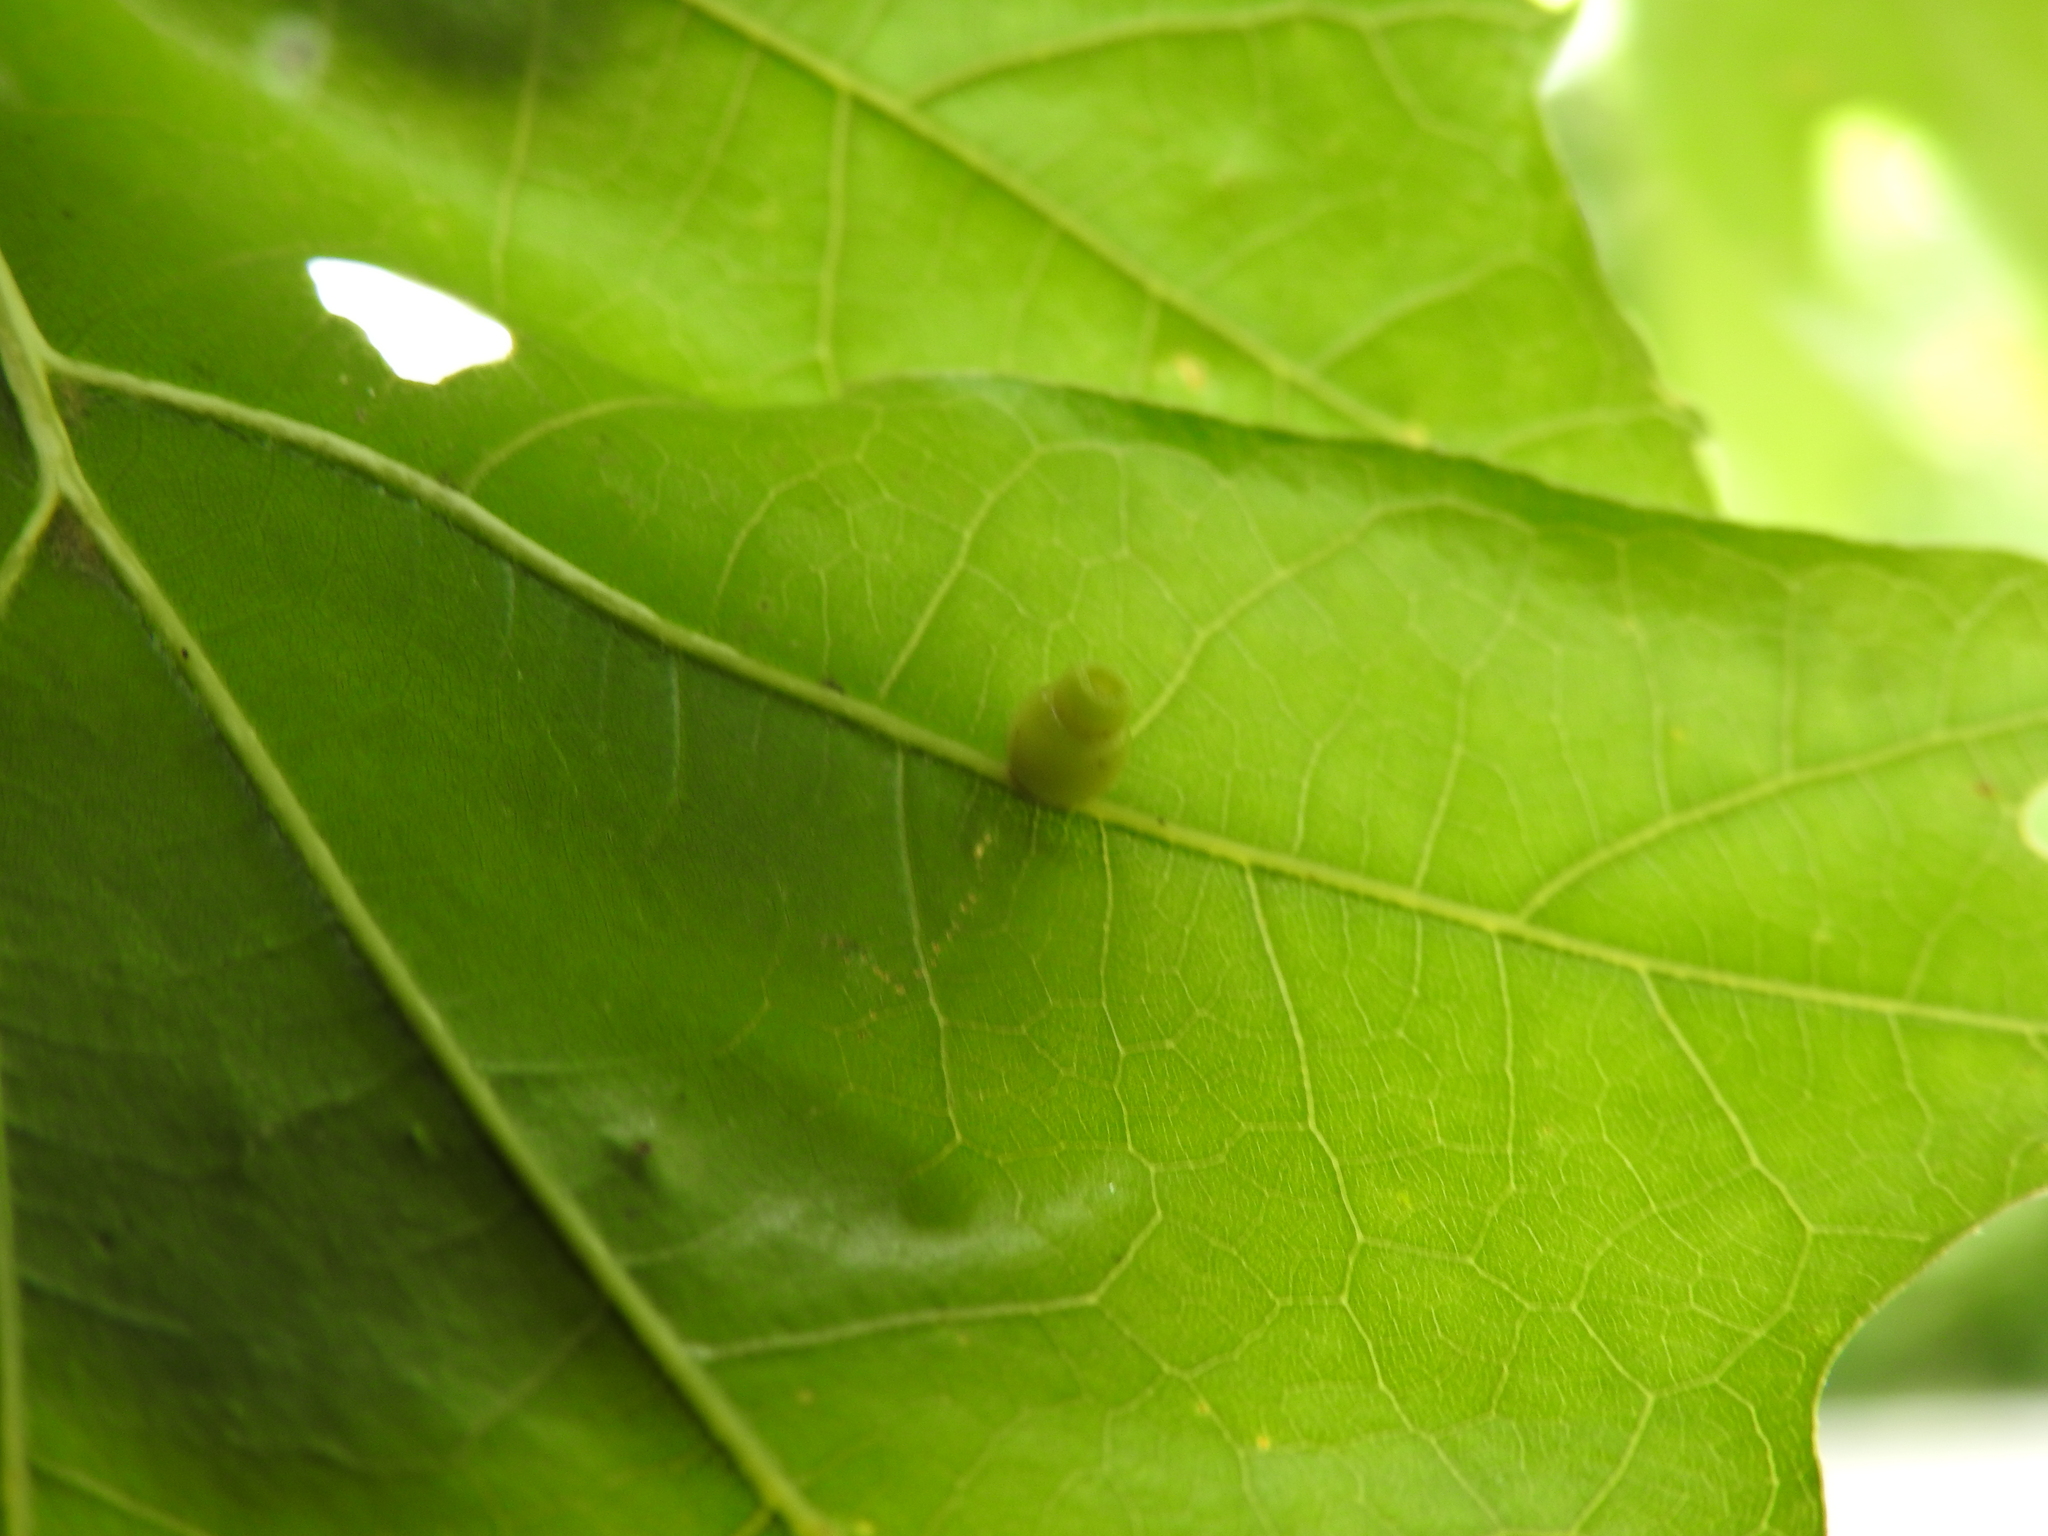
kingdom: Animalia
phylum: Arthropoda
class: Insecta
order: Hymenoptera
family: Cynipidae
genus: Kokkocynips
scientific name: Kokkocynips rileyi
